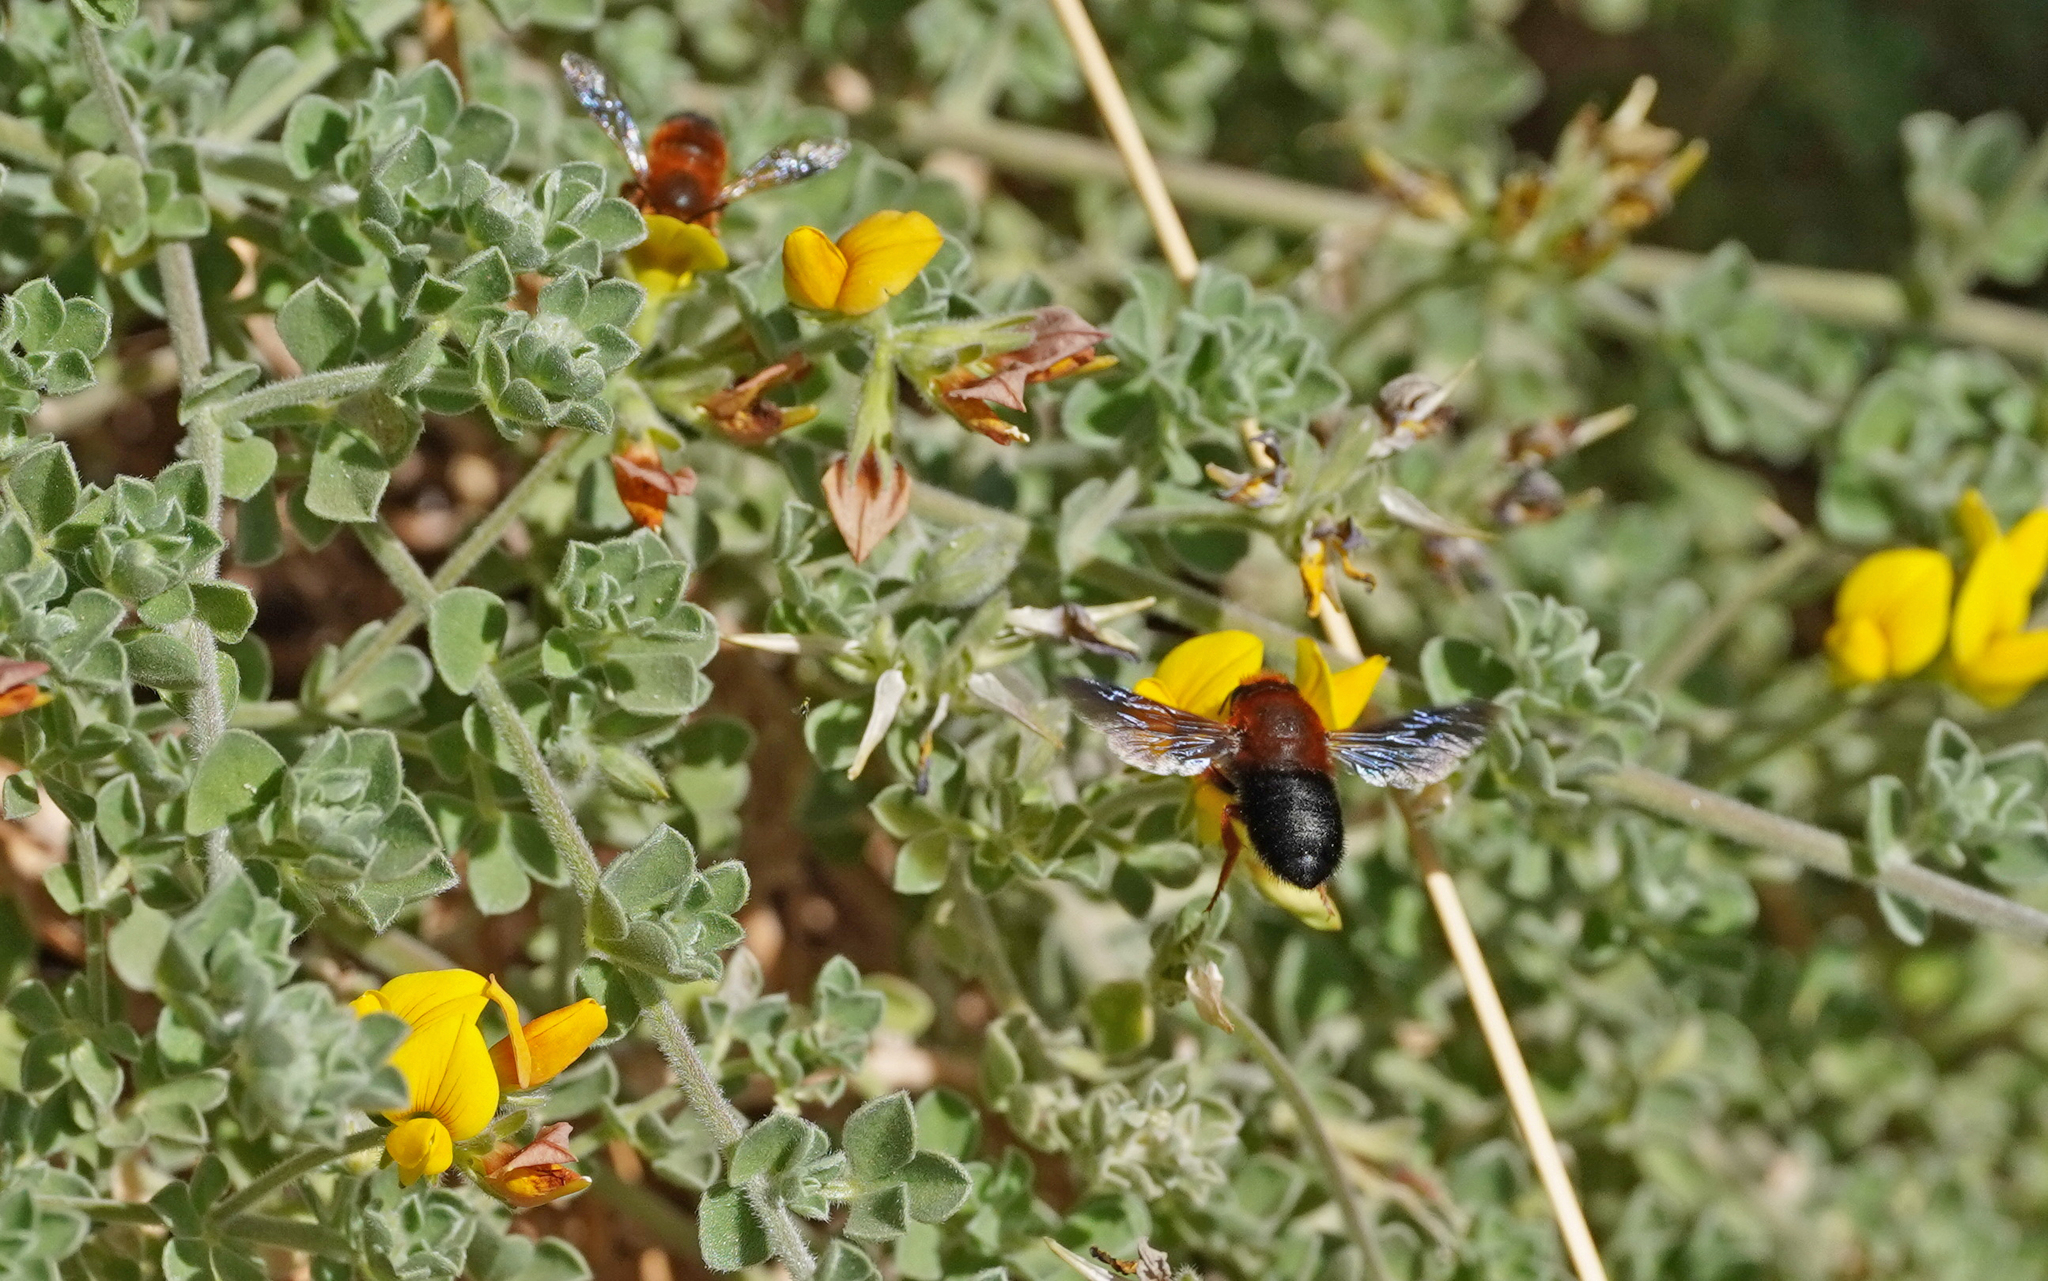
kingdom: Animalia
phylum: Arthropoda
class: Insecta
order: Hymenoptera
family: Megachilidae
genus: Megachile
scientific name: Megachile sicula
